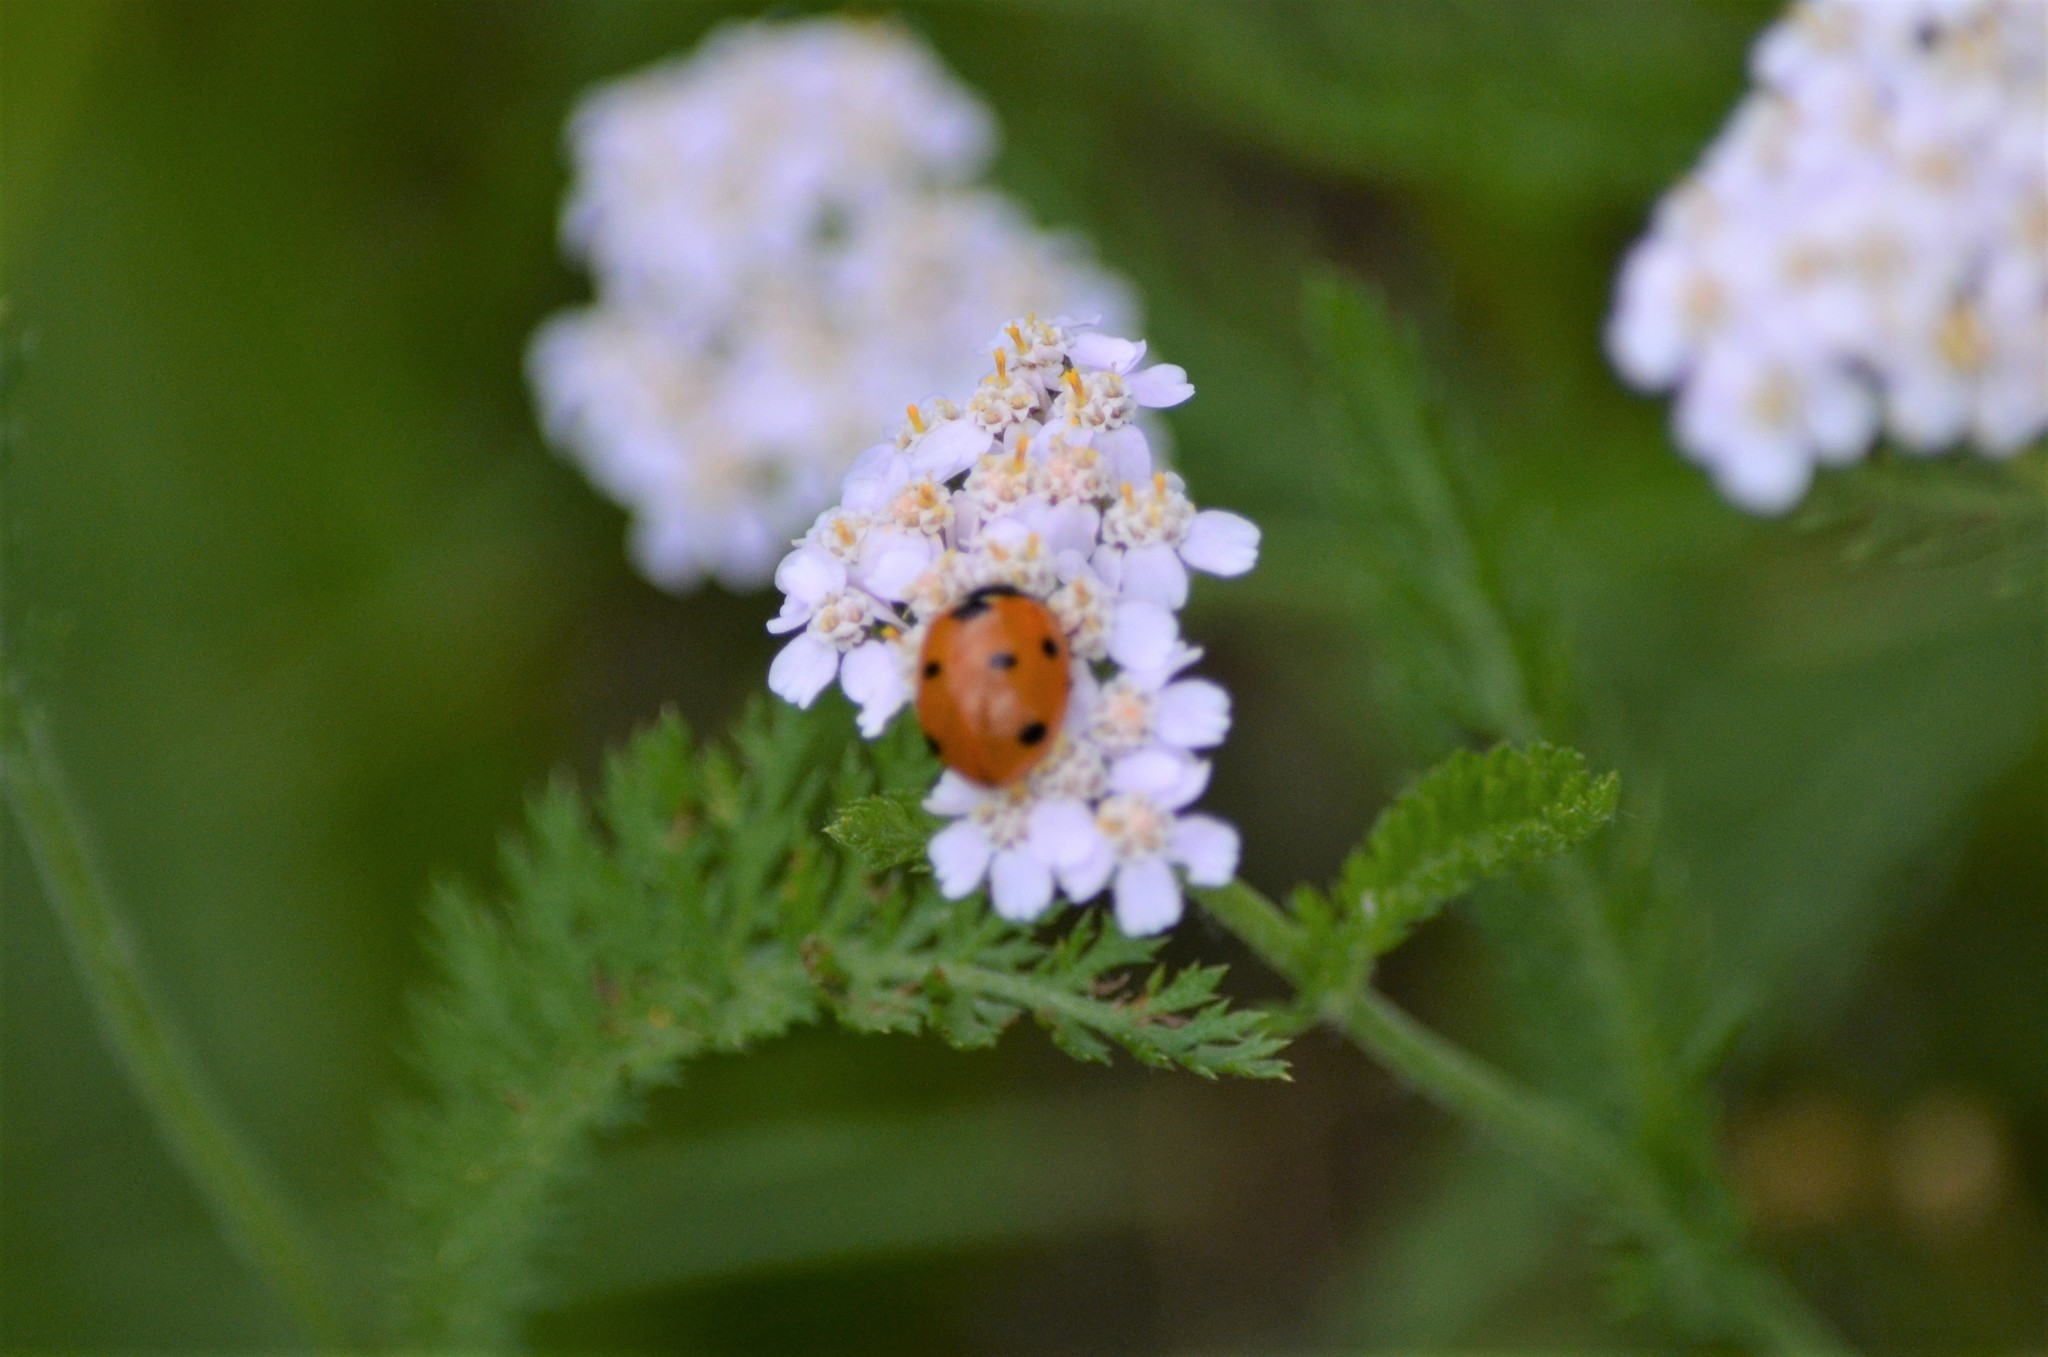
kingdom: Animalia
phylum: Arthropoda
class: Insecta
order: Coleoptera
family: Coccinellidae
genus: Coccinella
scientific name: Coccinella septempunctata
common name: Sevenspotted lady beetle
